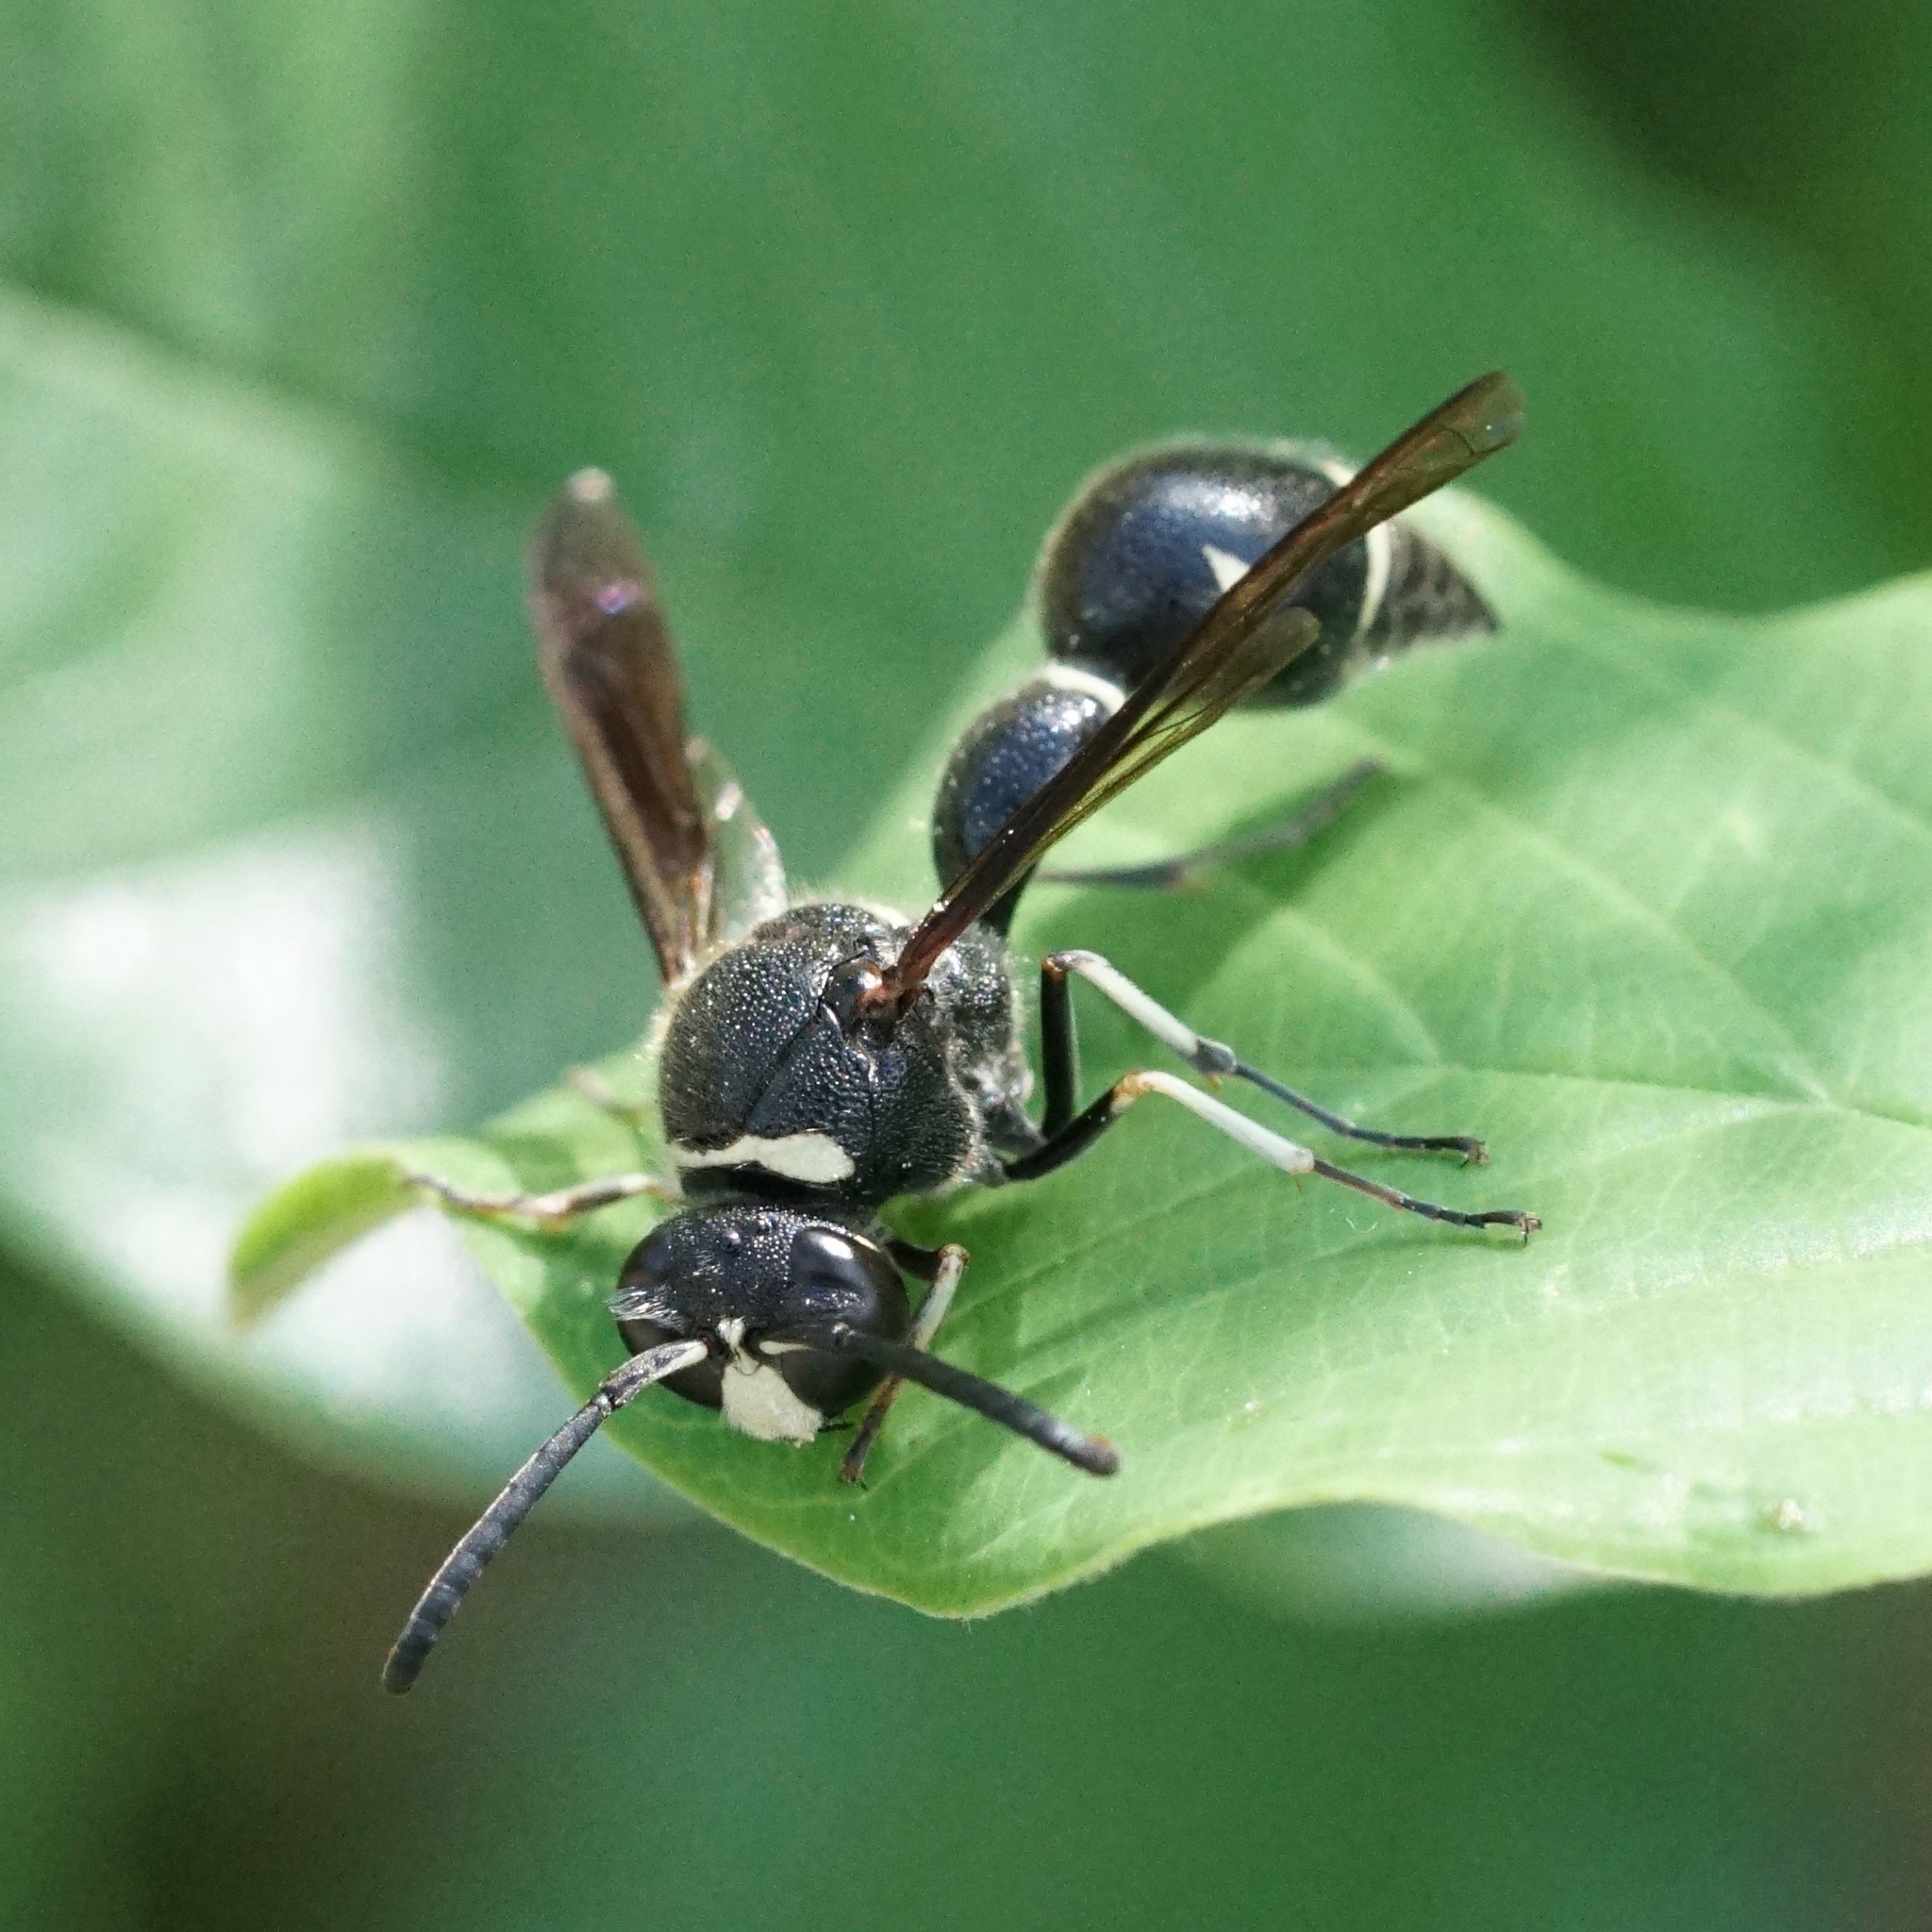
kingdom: Animalia
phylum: Arthropoda
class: Insecta
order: Hymenoptera
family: Vespidae
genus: Eumenes
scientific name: Eumenes fraternus
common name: Fraternal potter wasp
